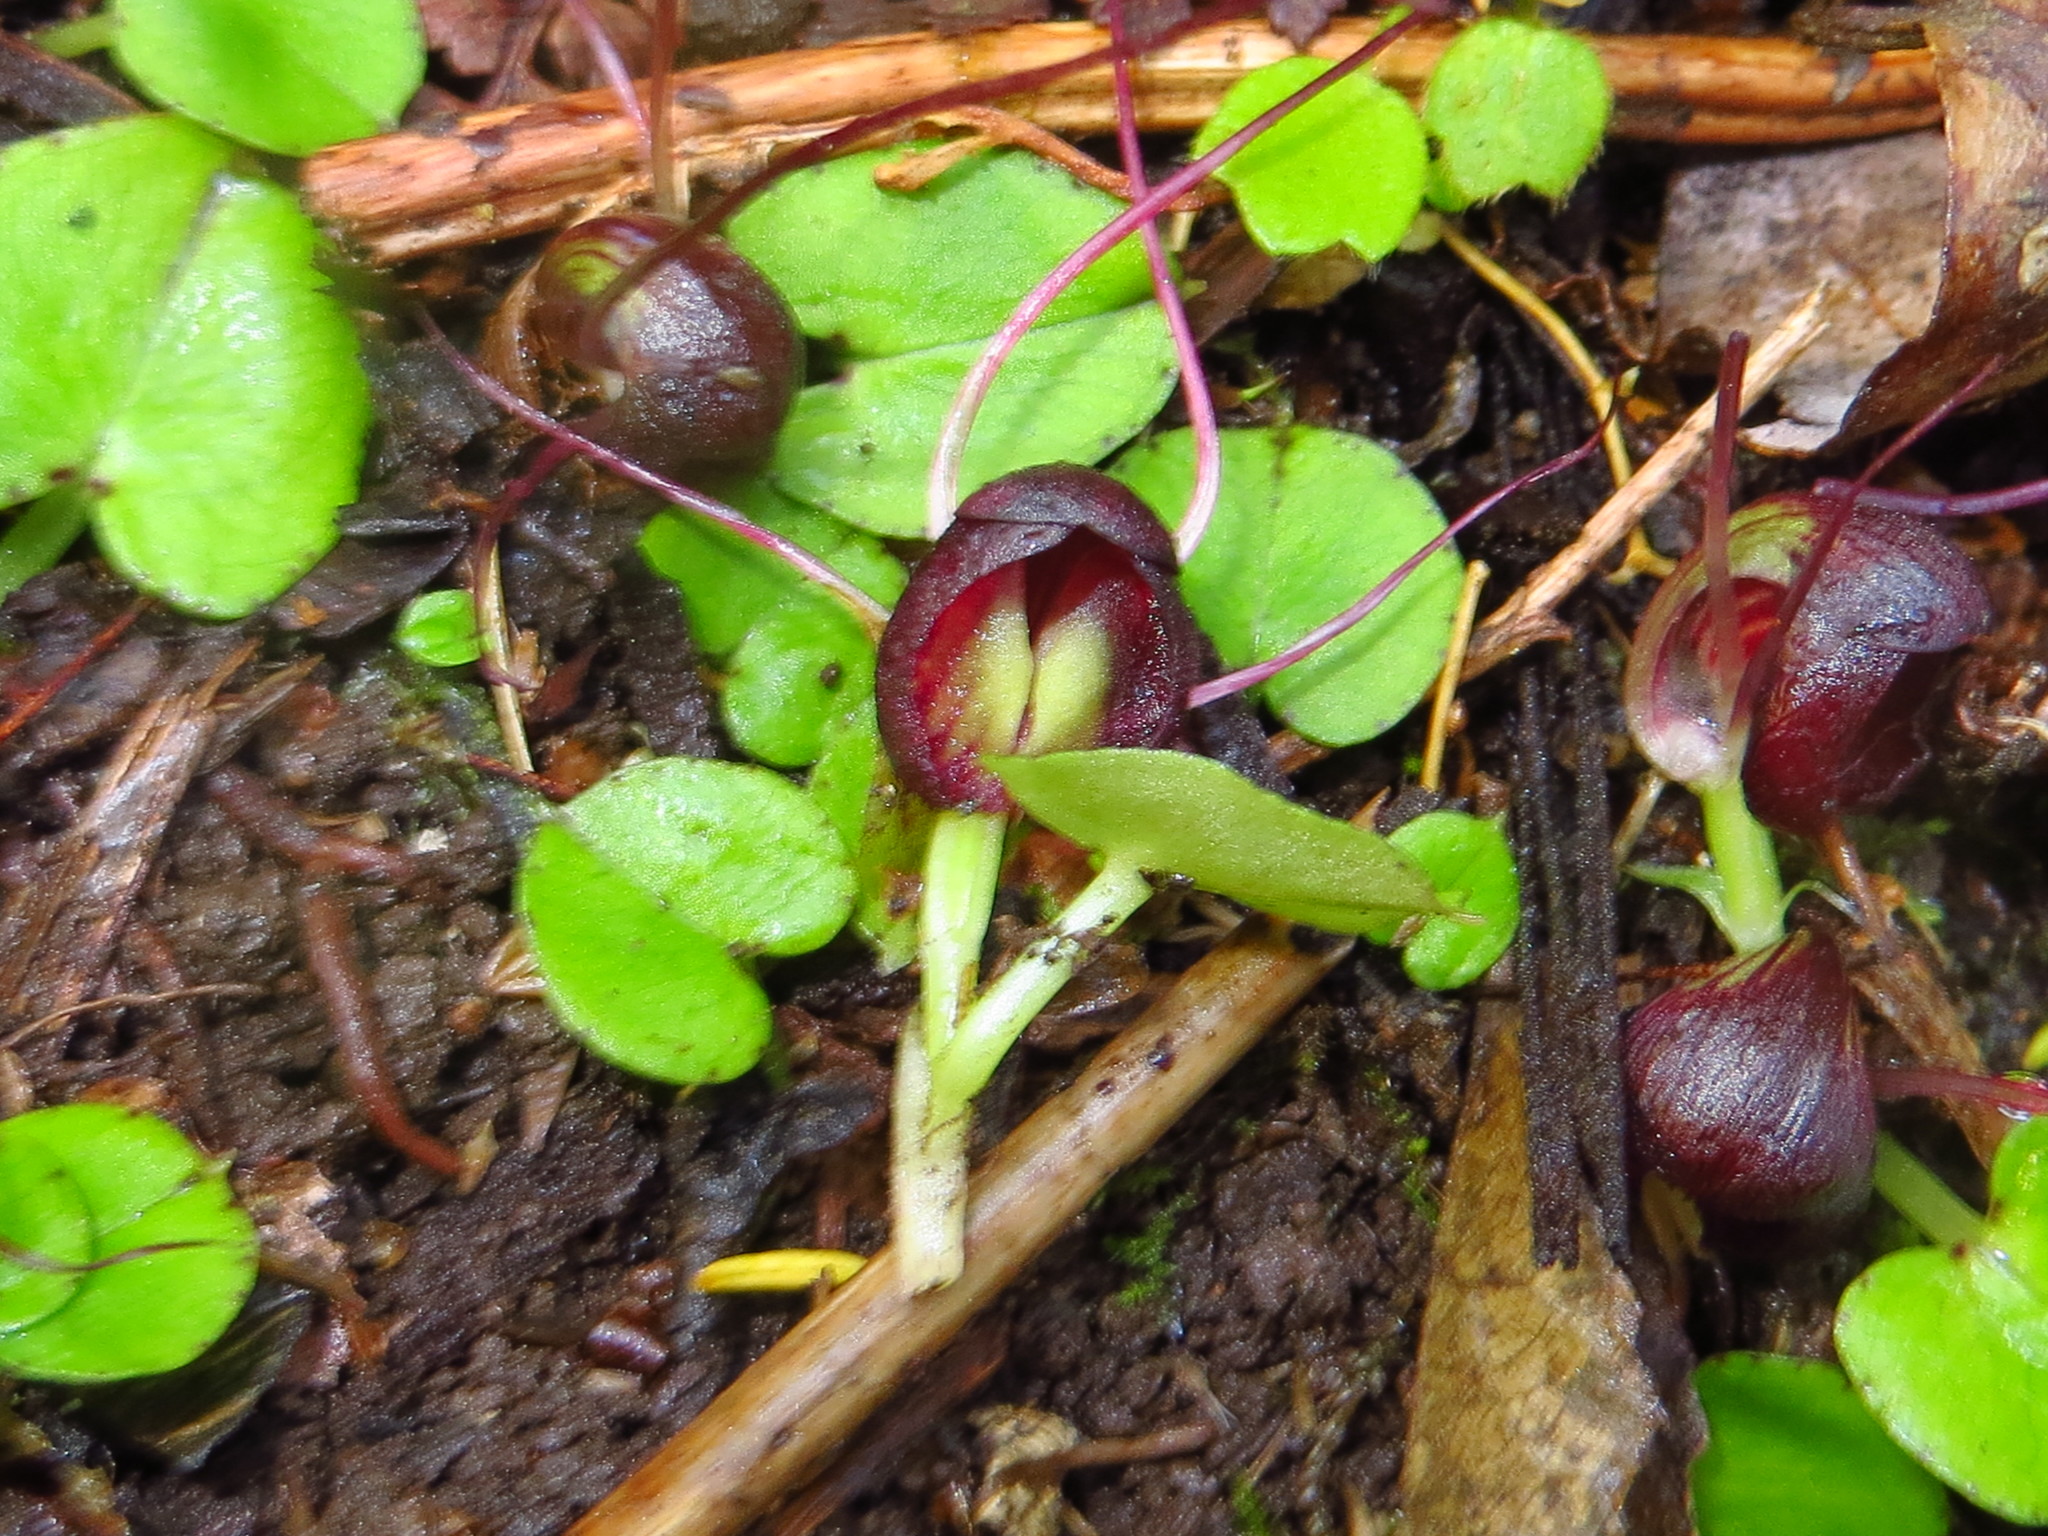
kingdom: Plantae
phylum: Tracheophyta
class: Liliopsida
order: Asparagales
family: Orchidaceae
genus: Corybas
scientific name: Corybas sulcatus
